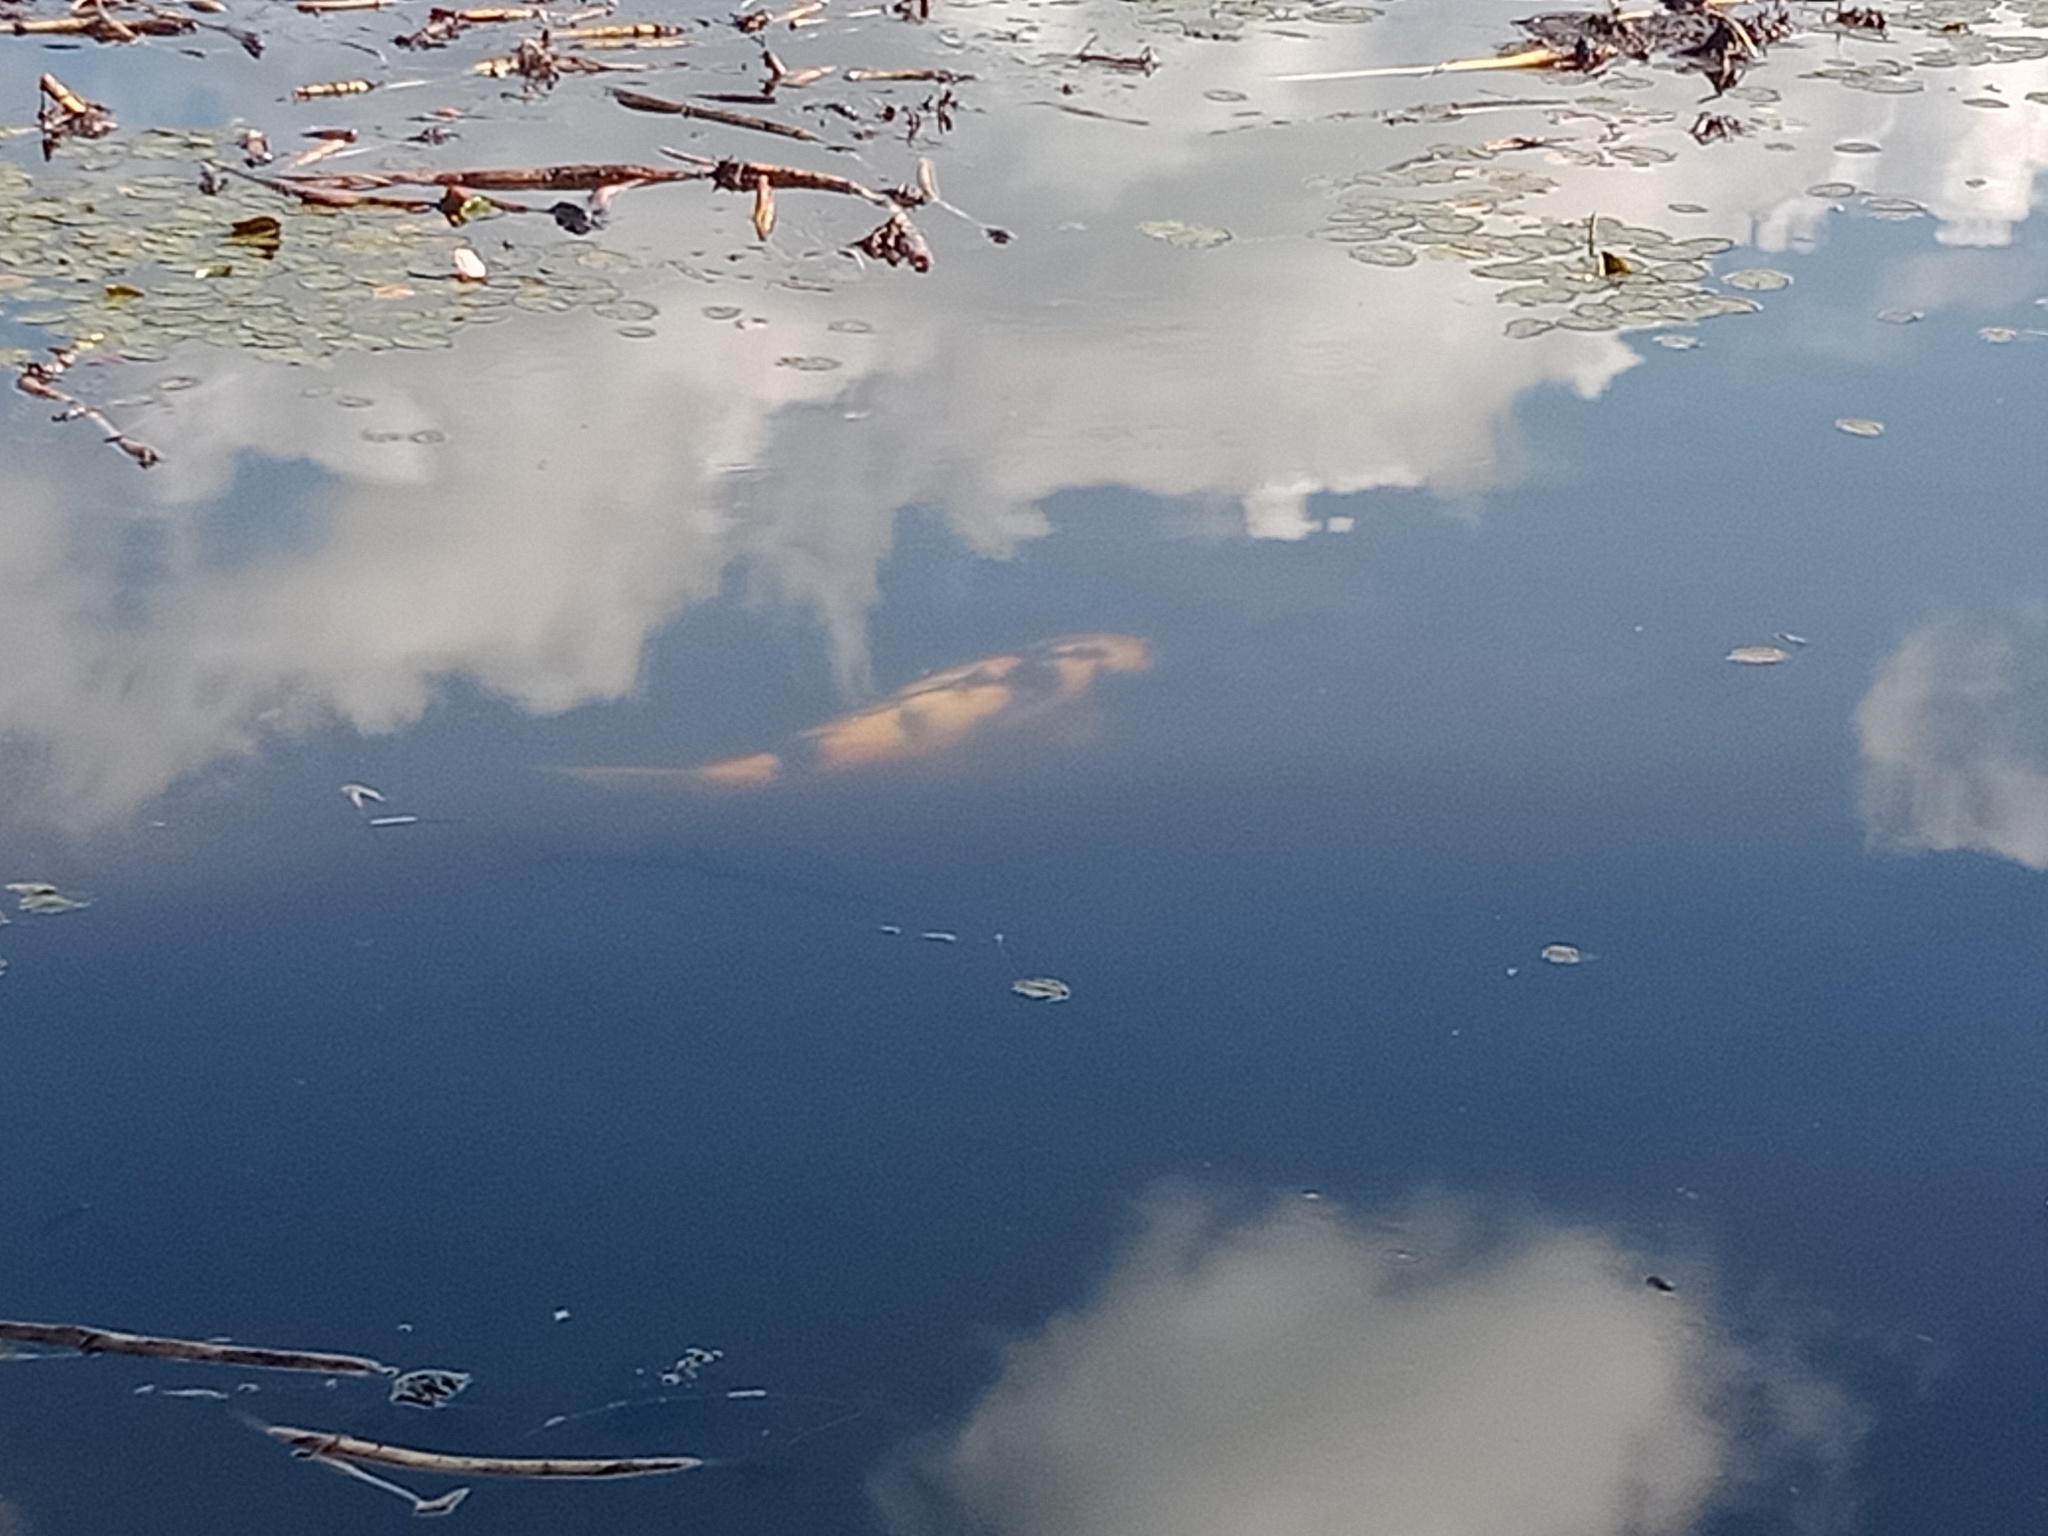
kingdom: Animalia
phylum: Chordata
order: Cypriniformes
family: Cyprinidae
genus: Cyprinus
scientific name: Cyprinus rubrofuscus
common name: Koi
